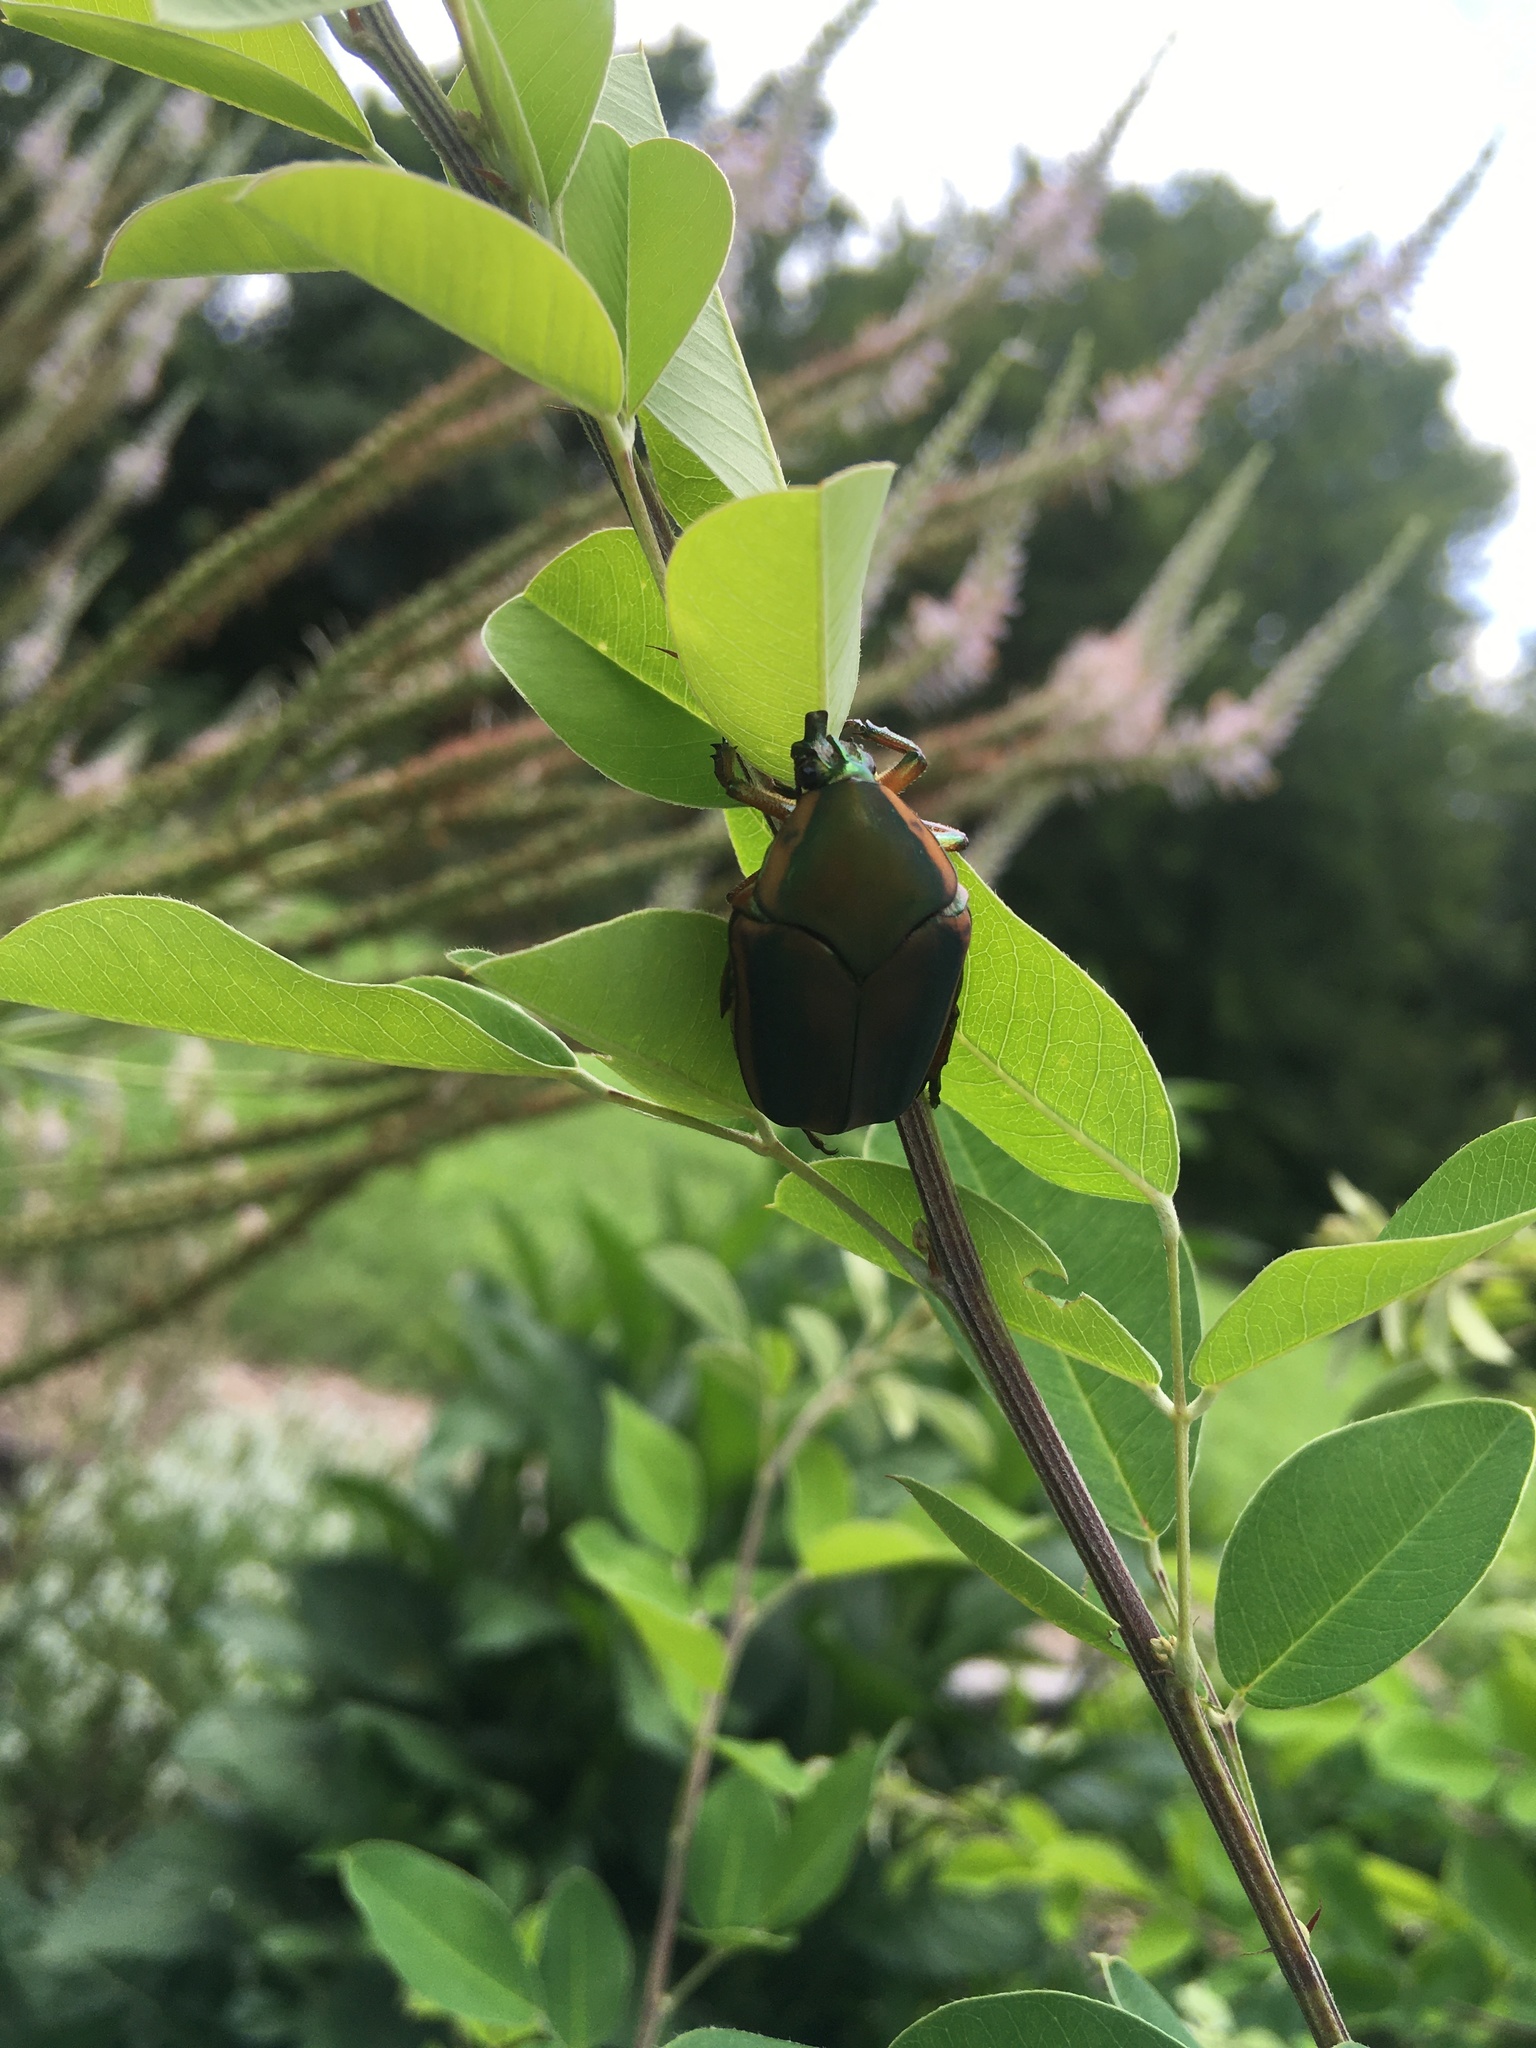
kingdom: Animalia
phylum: Arthropoda
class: Insecta
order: Coleoptera
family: Scarabaeidae
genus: Cotinis
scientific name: Cotinis nitida
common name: Common green june beetle
